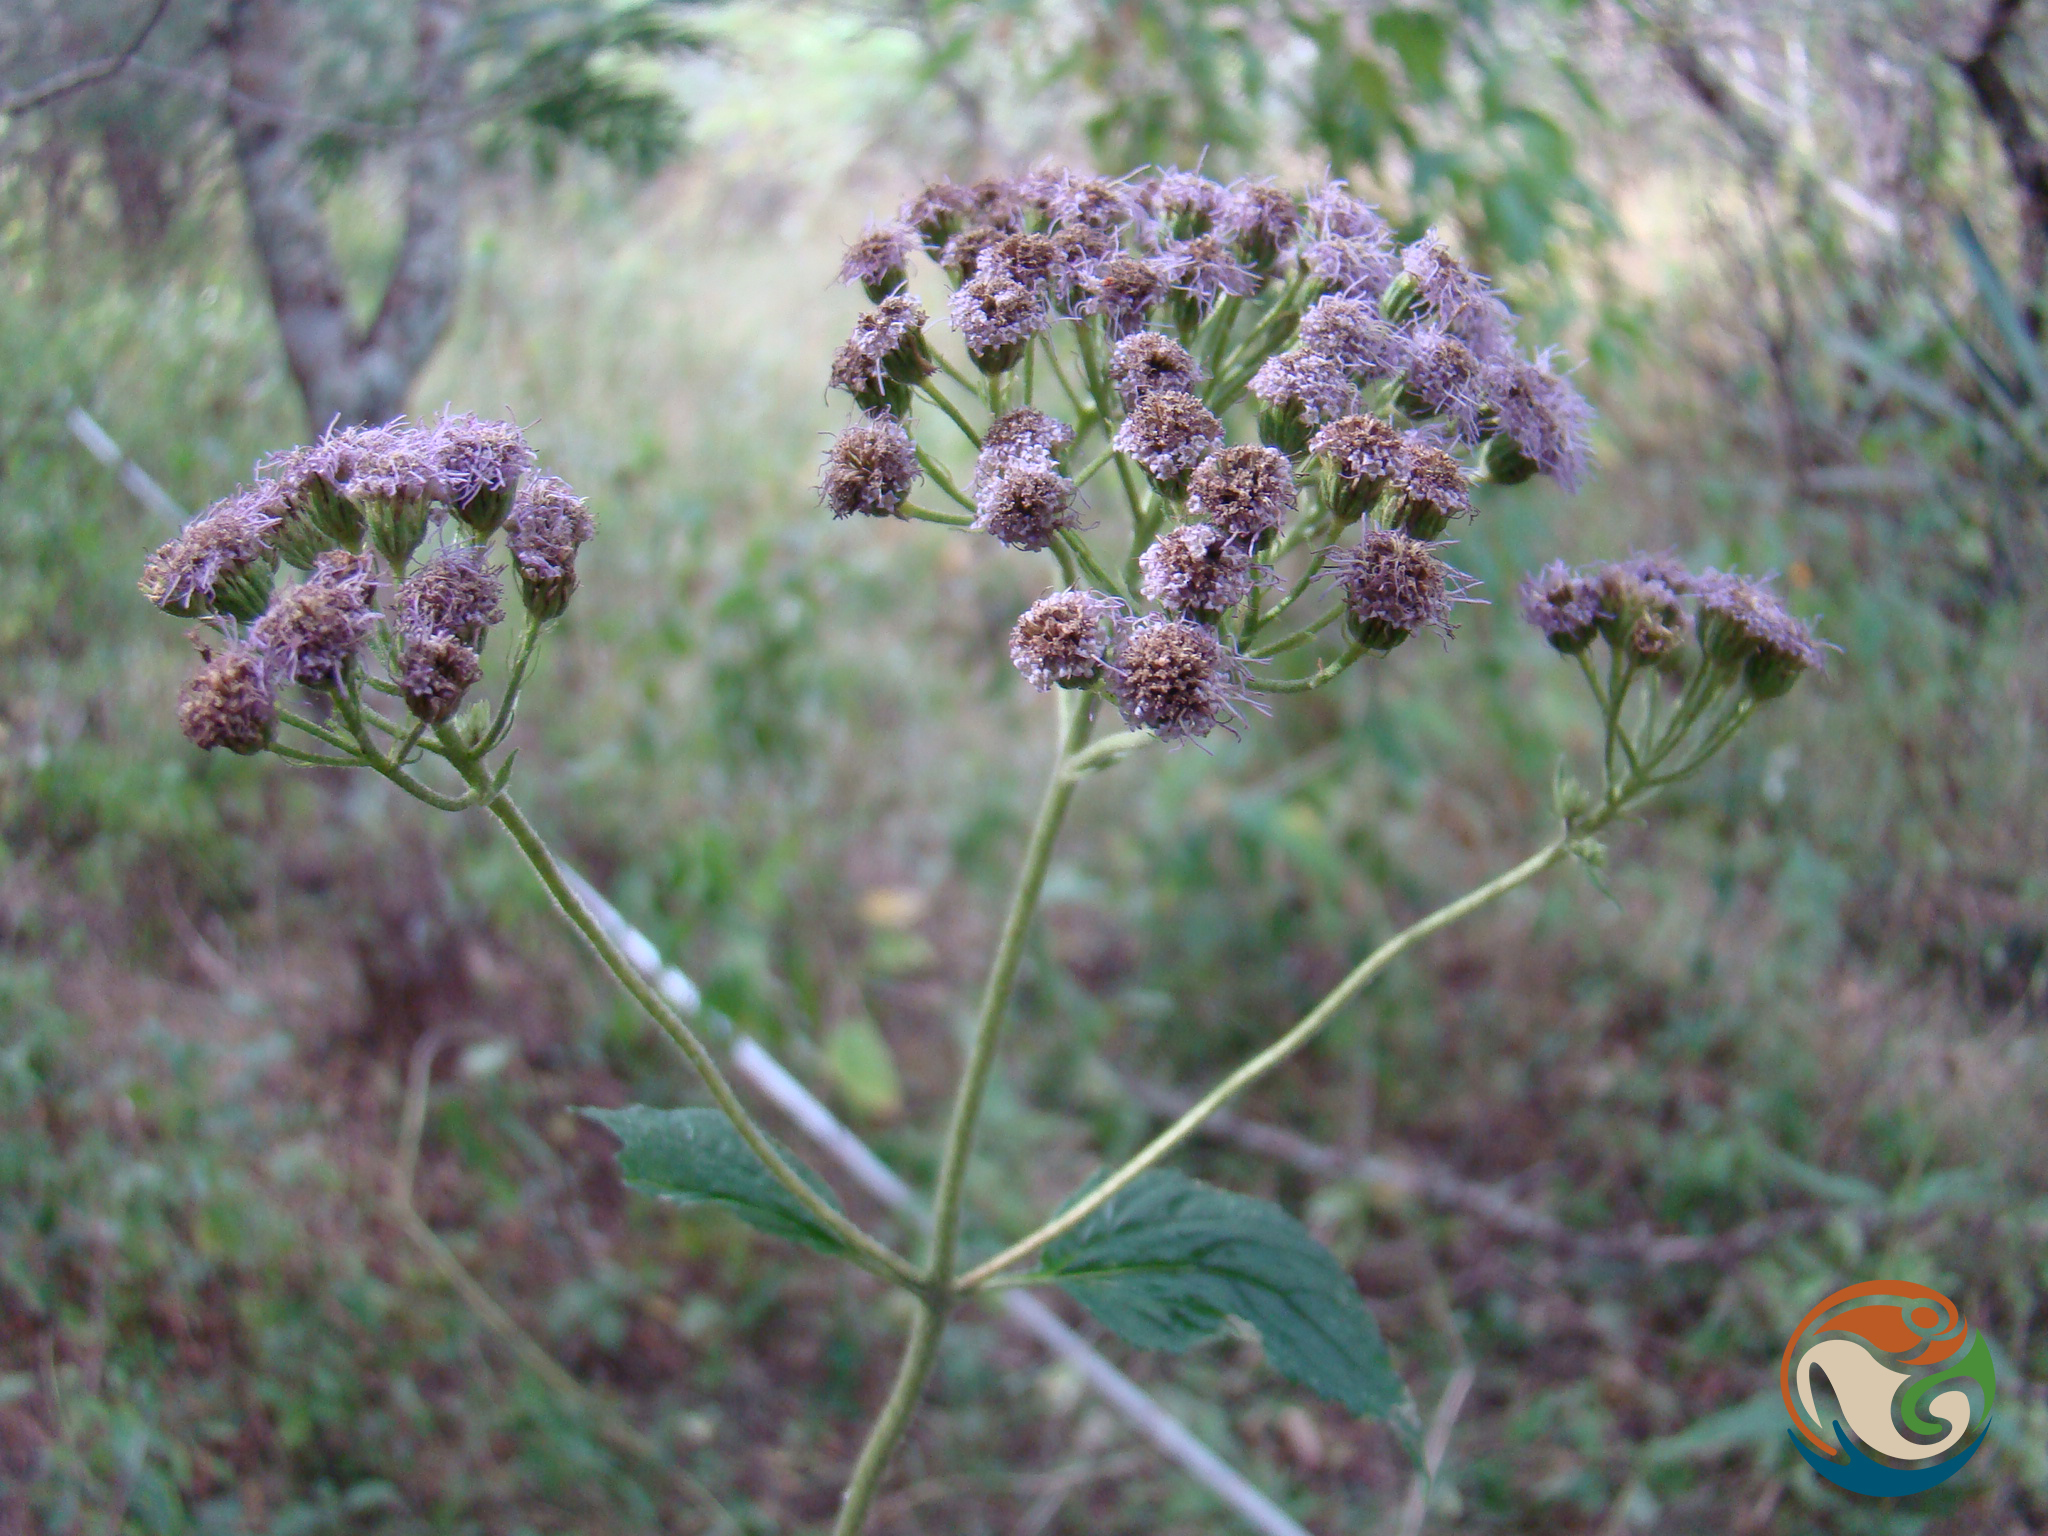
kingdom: Plantae
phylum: Tracheophyta
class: Magnoliopsida
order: Asterales
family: Asteraceae
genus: Chromolaena
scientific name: Chromolaena odorata
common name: Siamweed
